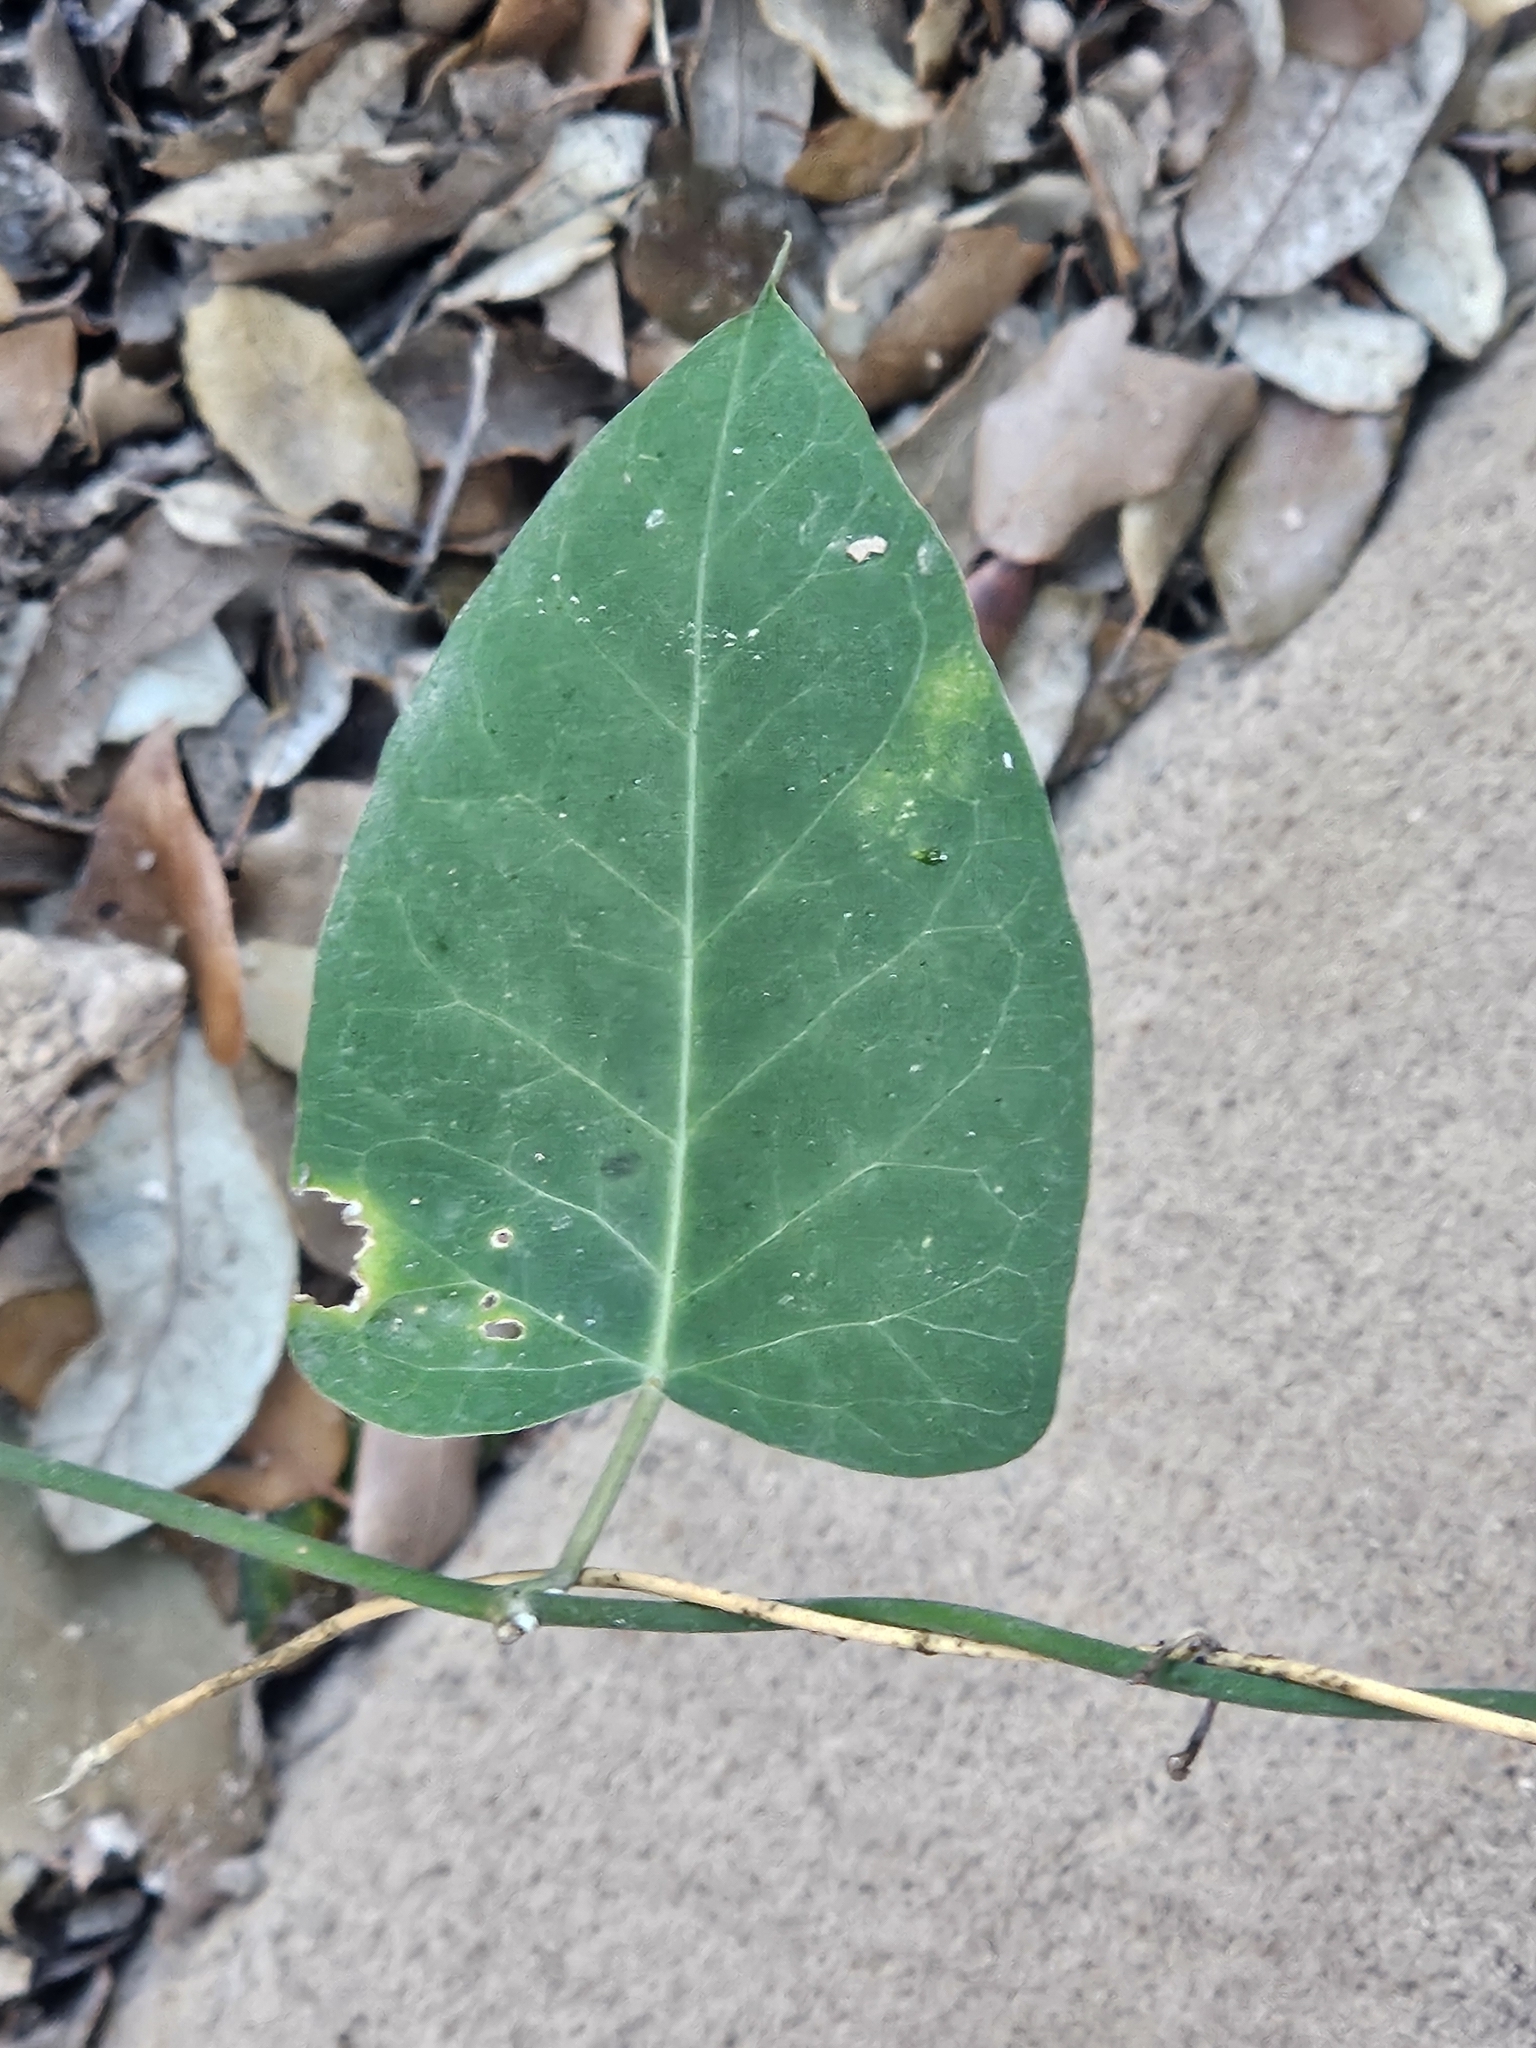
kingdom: Plantae
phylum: Tracheophyta
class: Magnoliopsida
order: Gentianales
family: Apocynaceae
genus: Araujia
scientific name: Araujia sericifera
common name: White bladderflower
